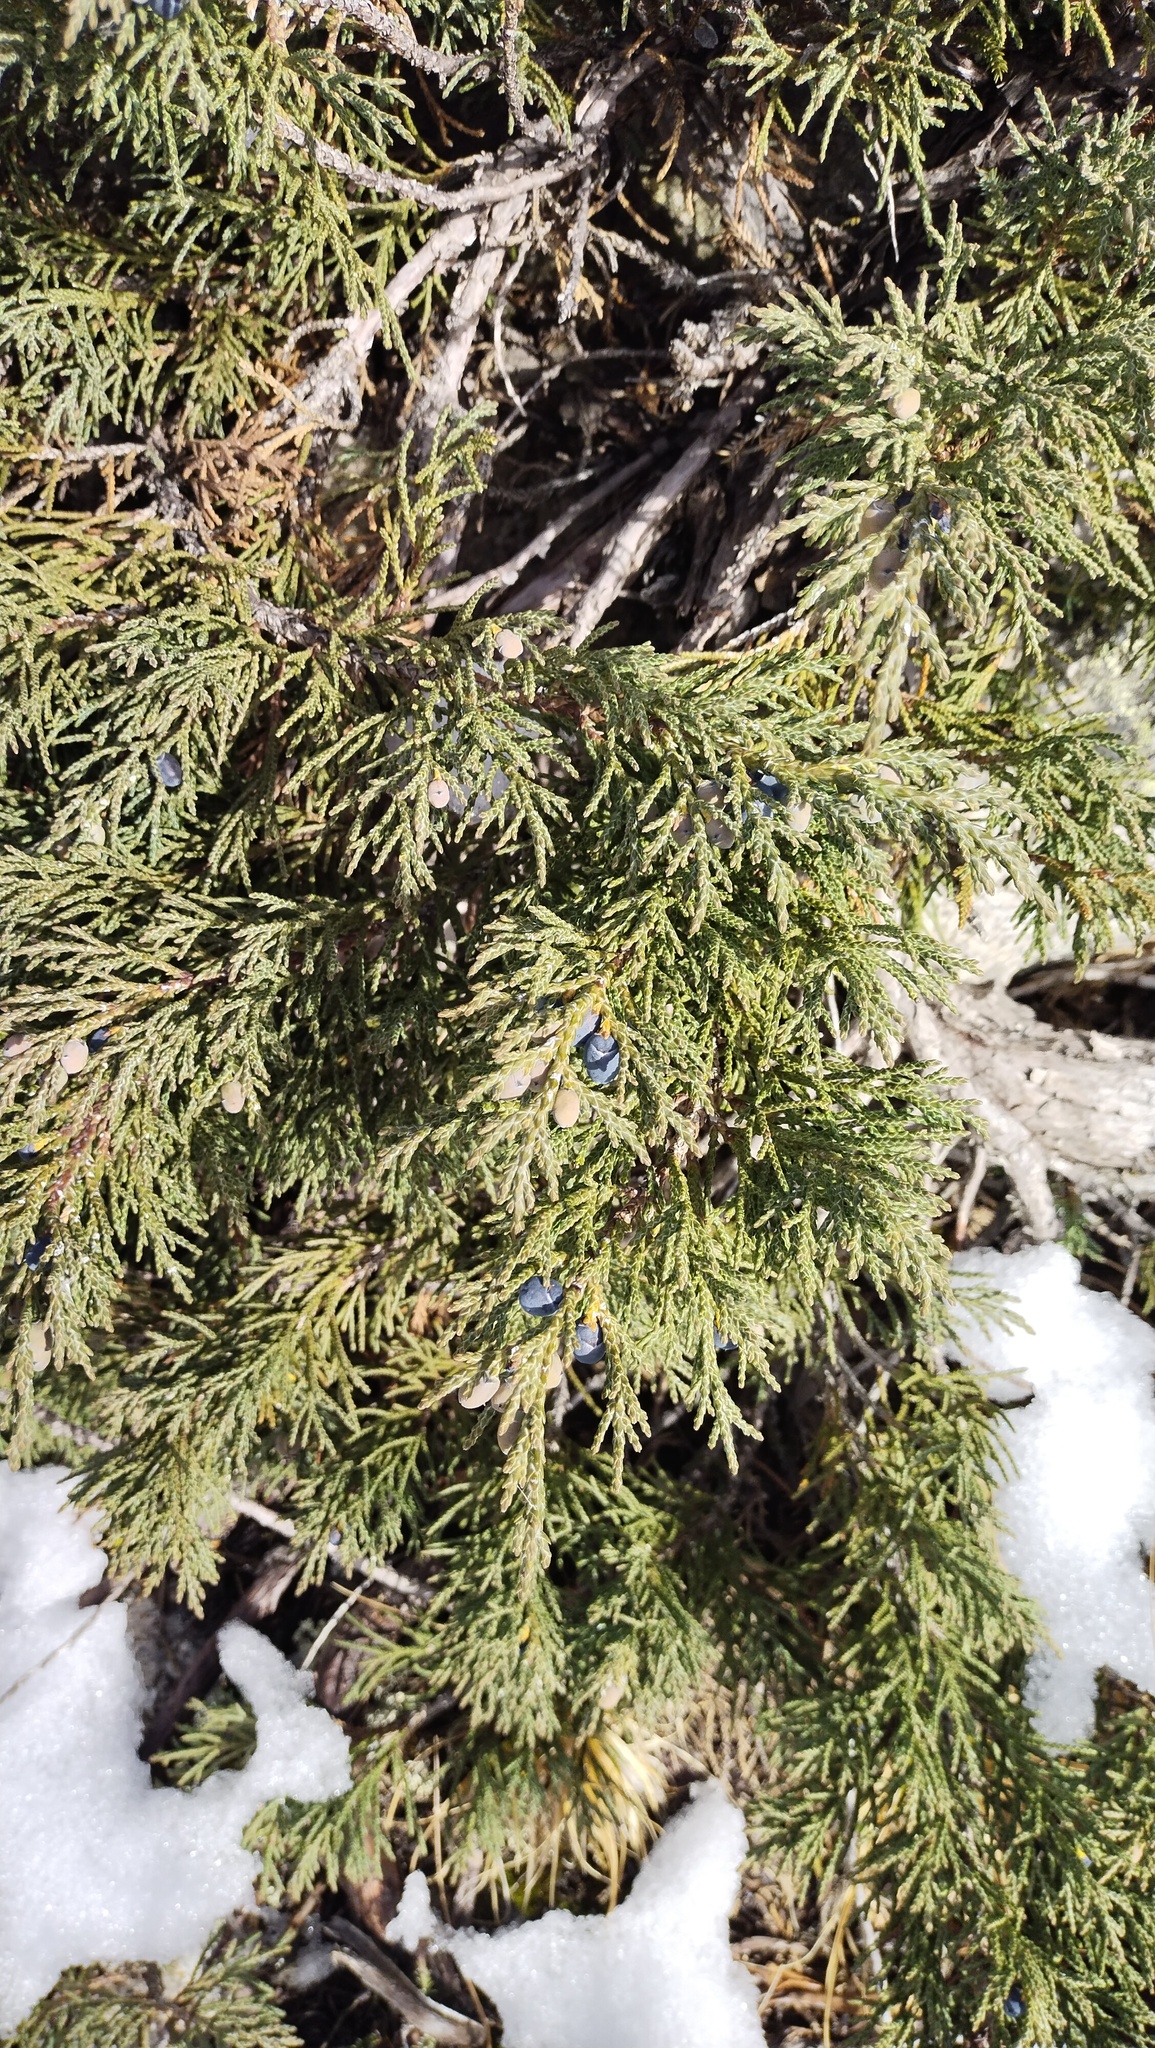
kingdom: Plantae
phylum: Tracheophyta
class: Pinopsida
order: Pinales
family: Cupressaceae
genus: Juniperus
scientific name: Juniperus pseudosabina
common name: Turkestan juniper
